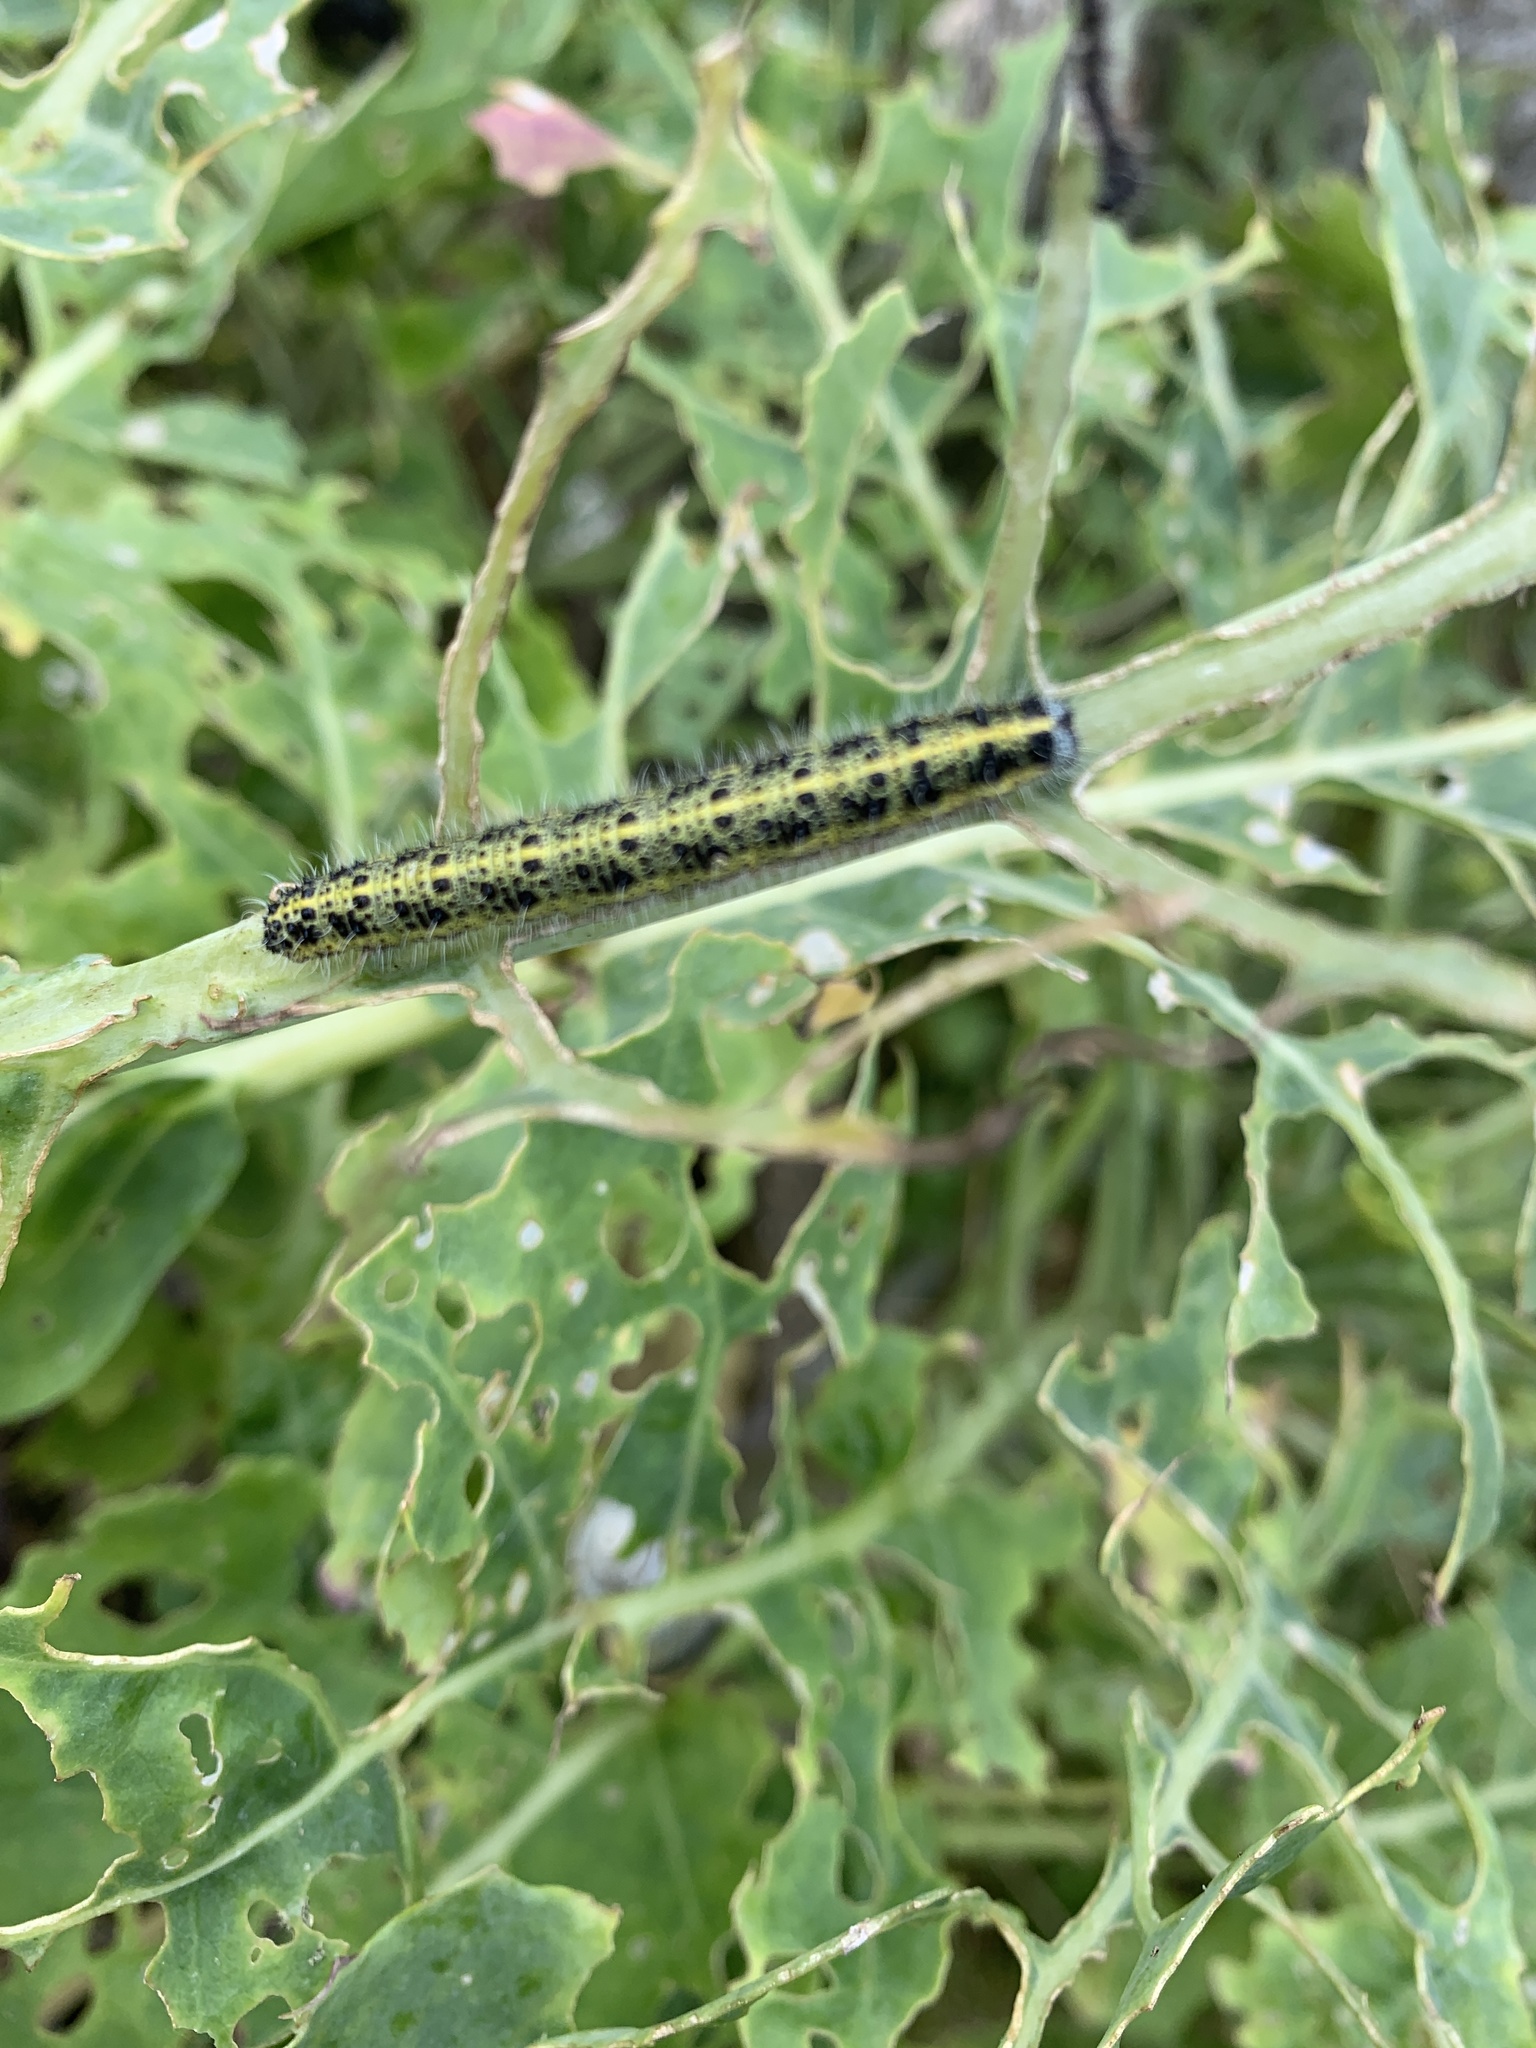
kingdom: Animalia
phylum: Arthropoda
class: Insecta
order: Lepidoptera
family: Pieridae
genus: Pieris
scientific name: Pieris brassicae
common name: Large white
